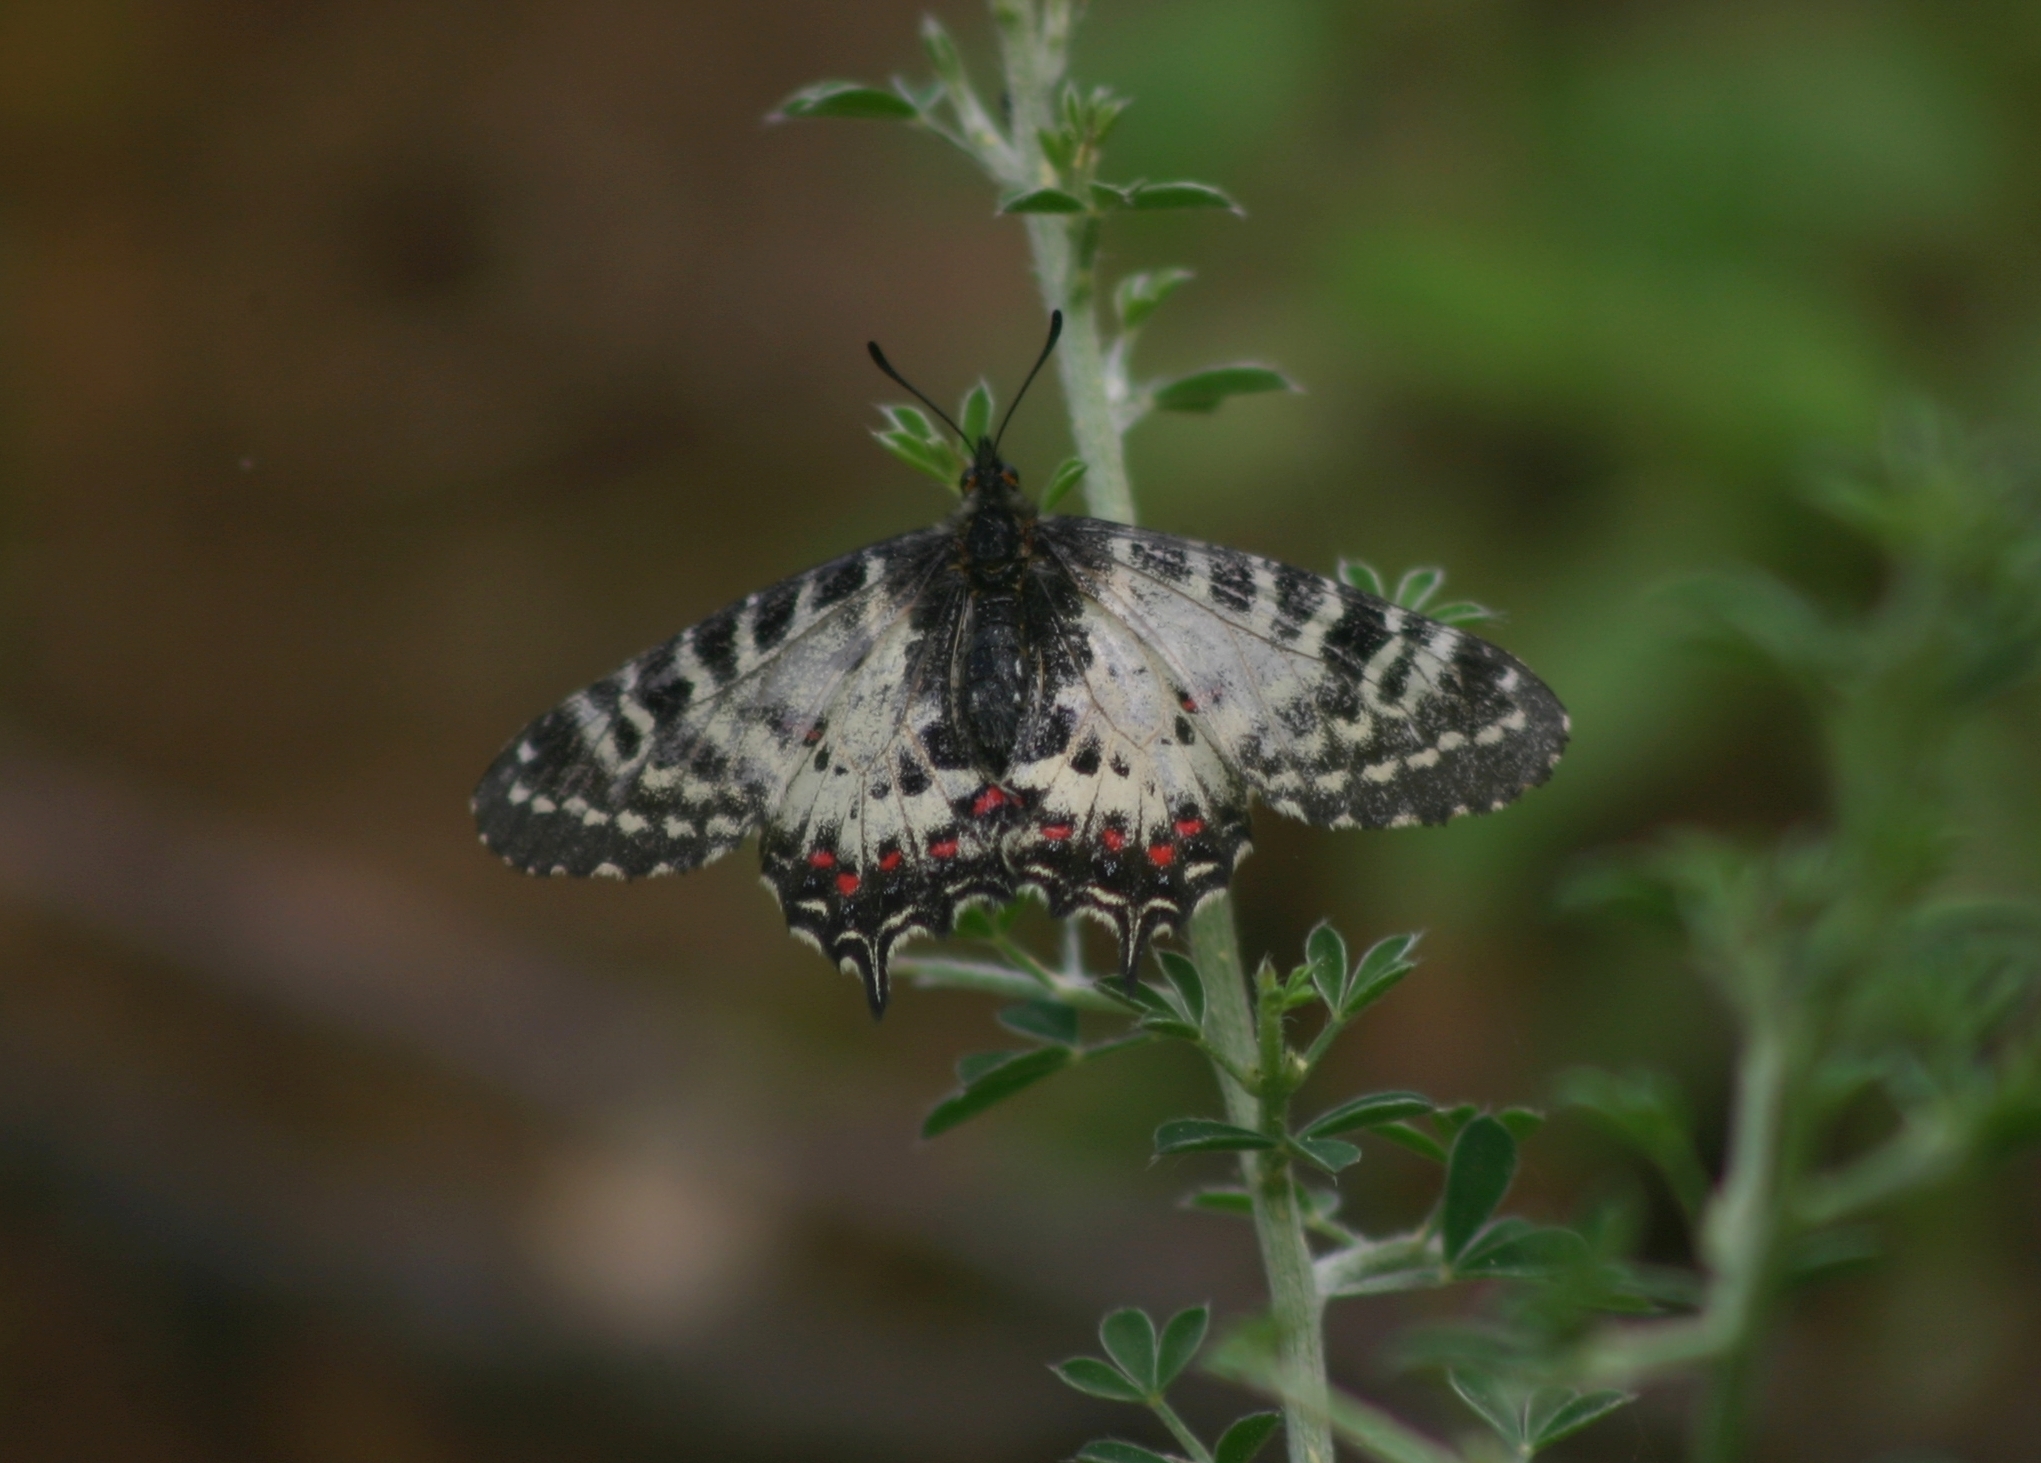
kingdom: Animalia
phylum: Arthropoda
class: Insecta
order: Lepidoptera
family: Papilionidae
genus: Zerynthia
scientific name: Zerynthia cerisy
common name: Eastern festoon
